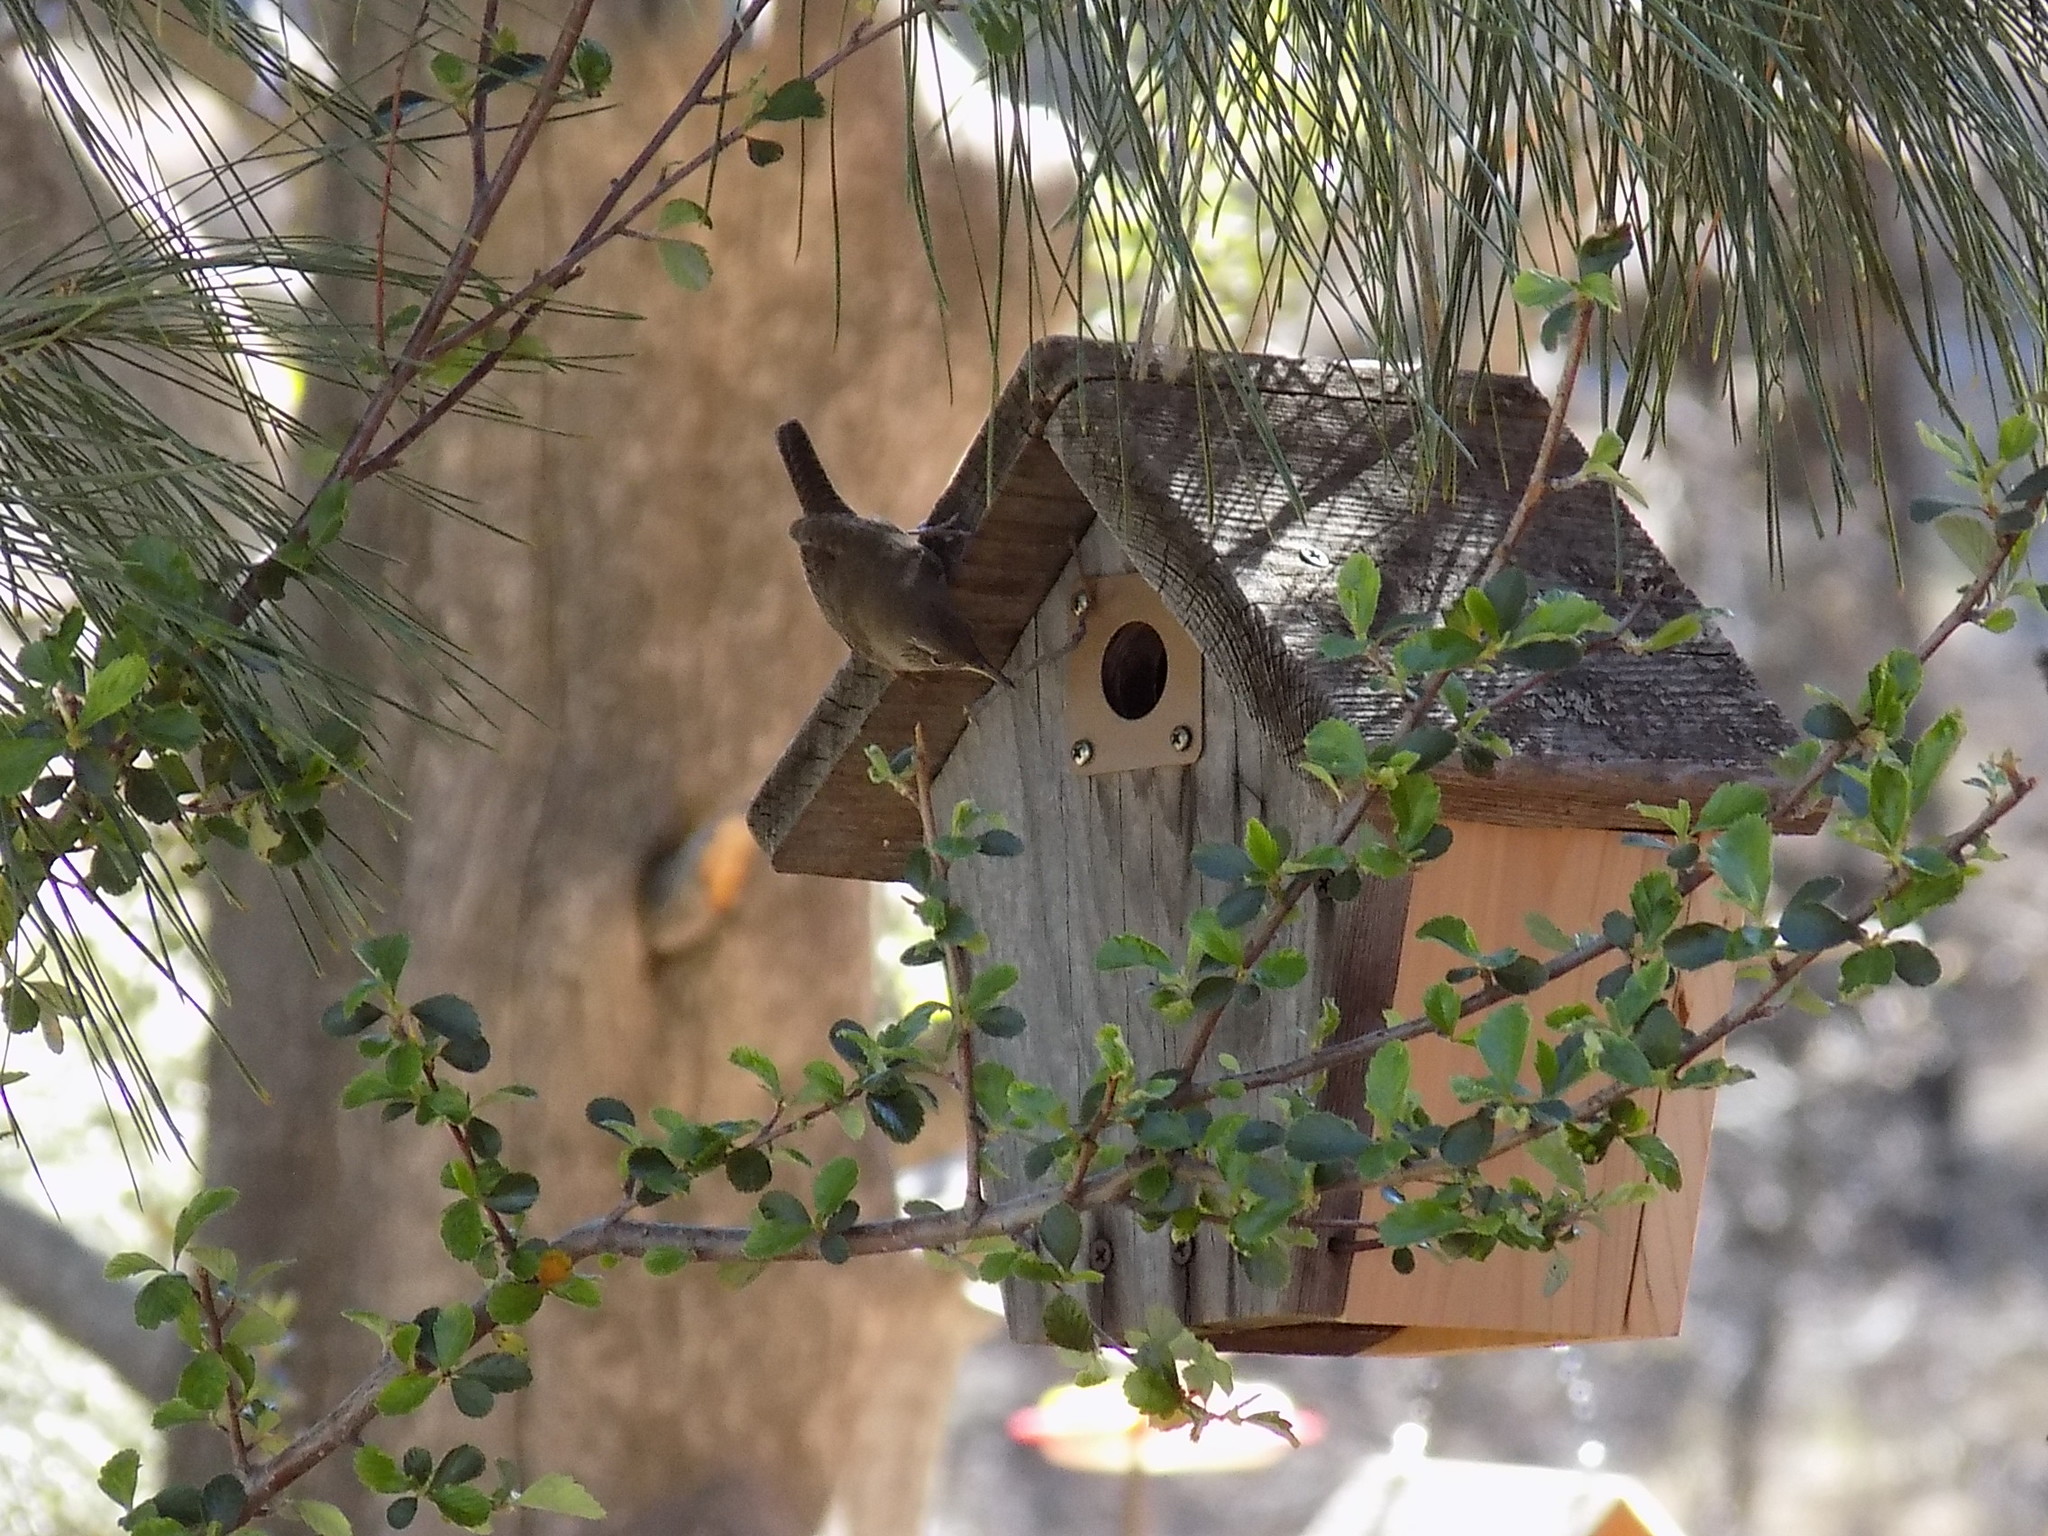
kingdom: Animalia
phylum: Chordata
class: Aves
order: Passeriformes
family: Troglodytidae
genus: Troglodytes
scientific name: Troglodytes aedon
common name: House wren
